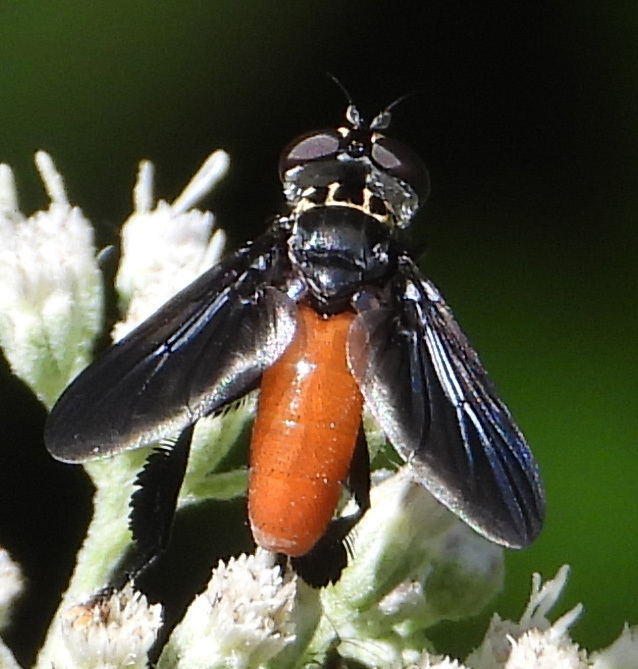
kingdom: Animalia
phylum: Arthropoda
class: Insecta
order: Diptera
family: Tachinidae
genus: Trichopoda
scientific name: Trichopoda pennipes
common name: Tachinid fly
